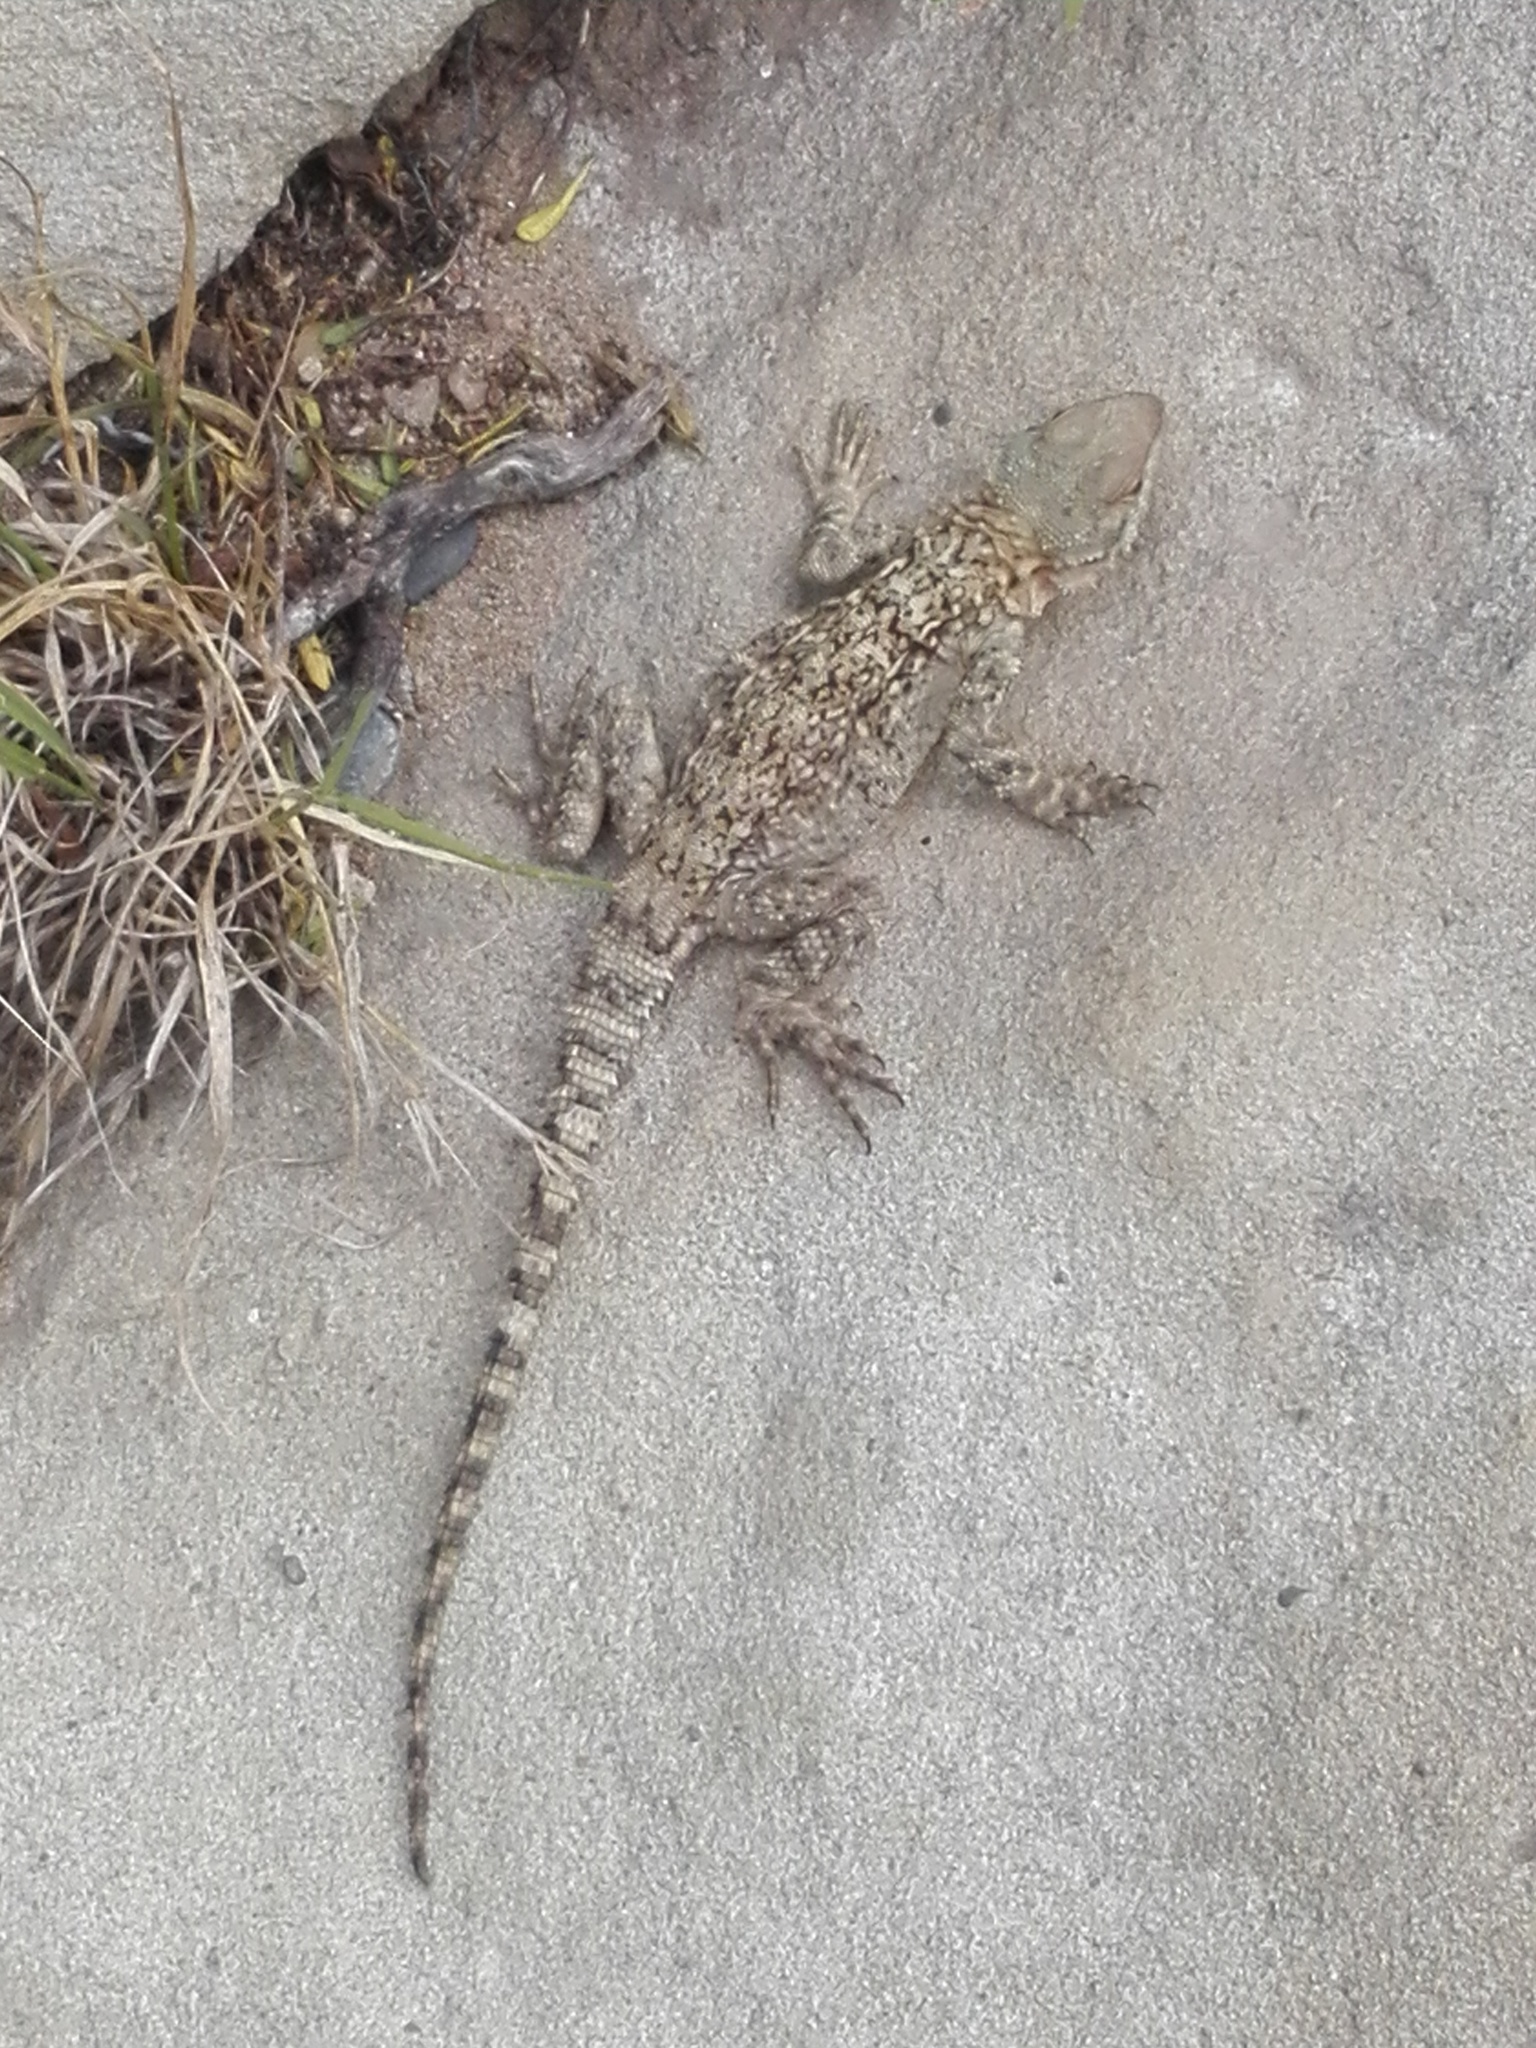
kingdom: Animalia
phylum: Chordata
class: Squamata
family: Agamidae
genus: Paralaudakia
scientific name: Paralaudakia caucasia
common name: Caucasian agama
